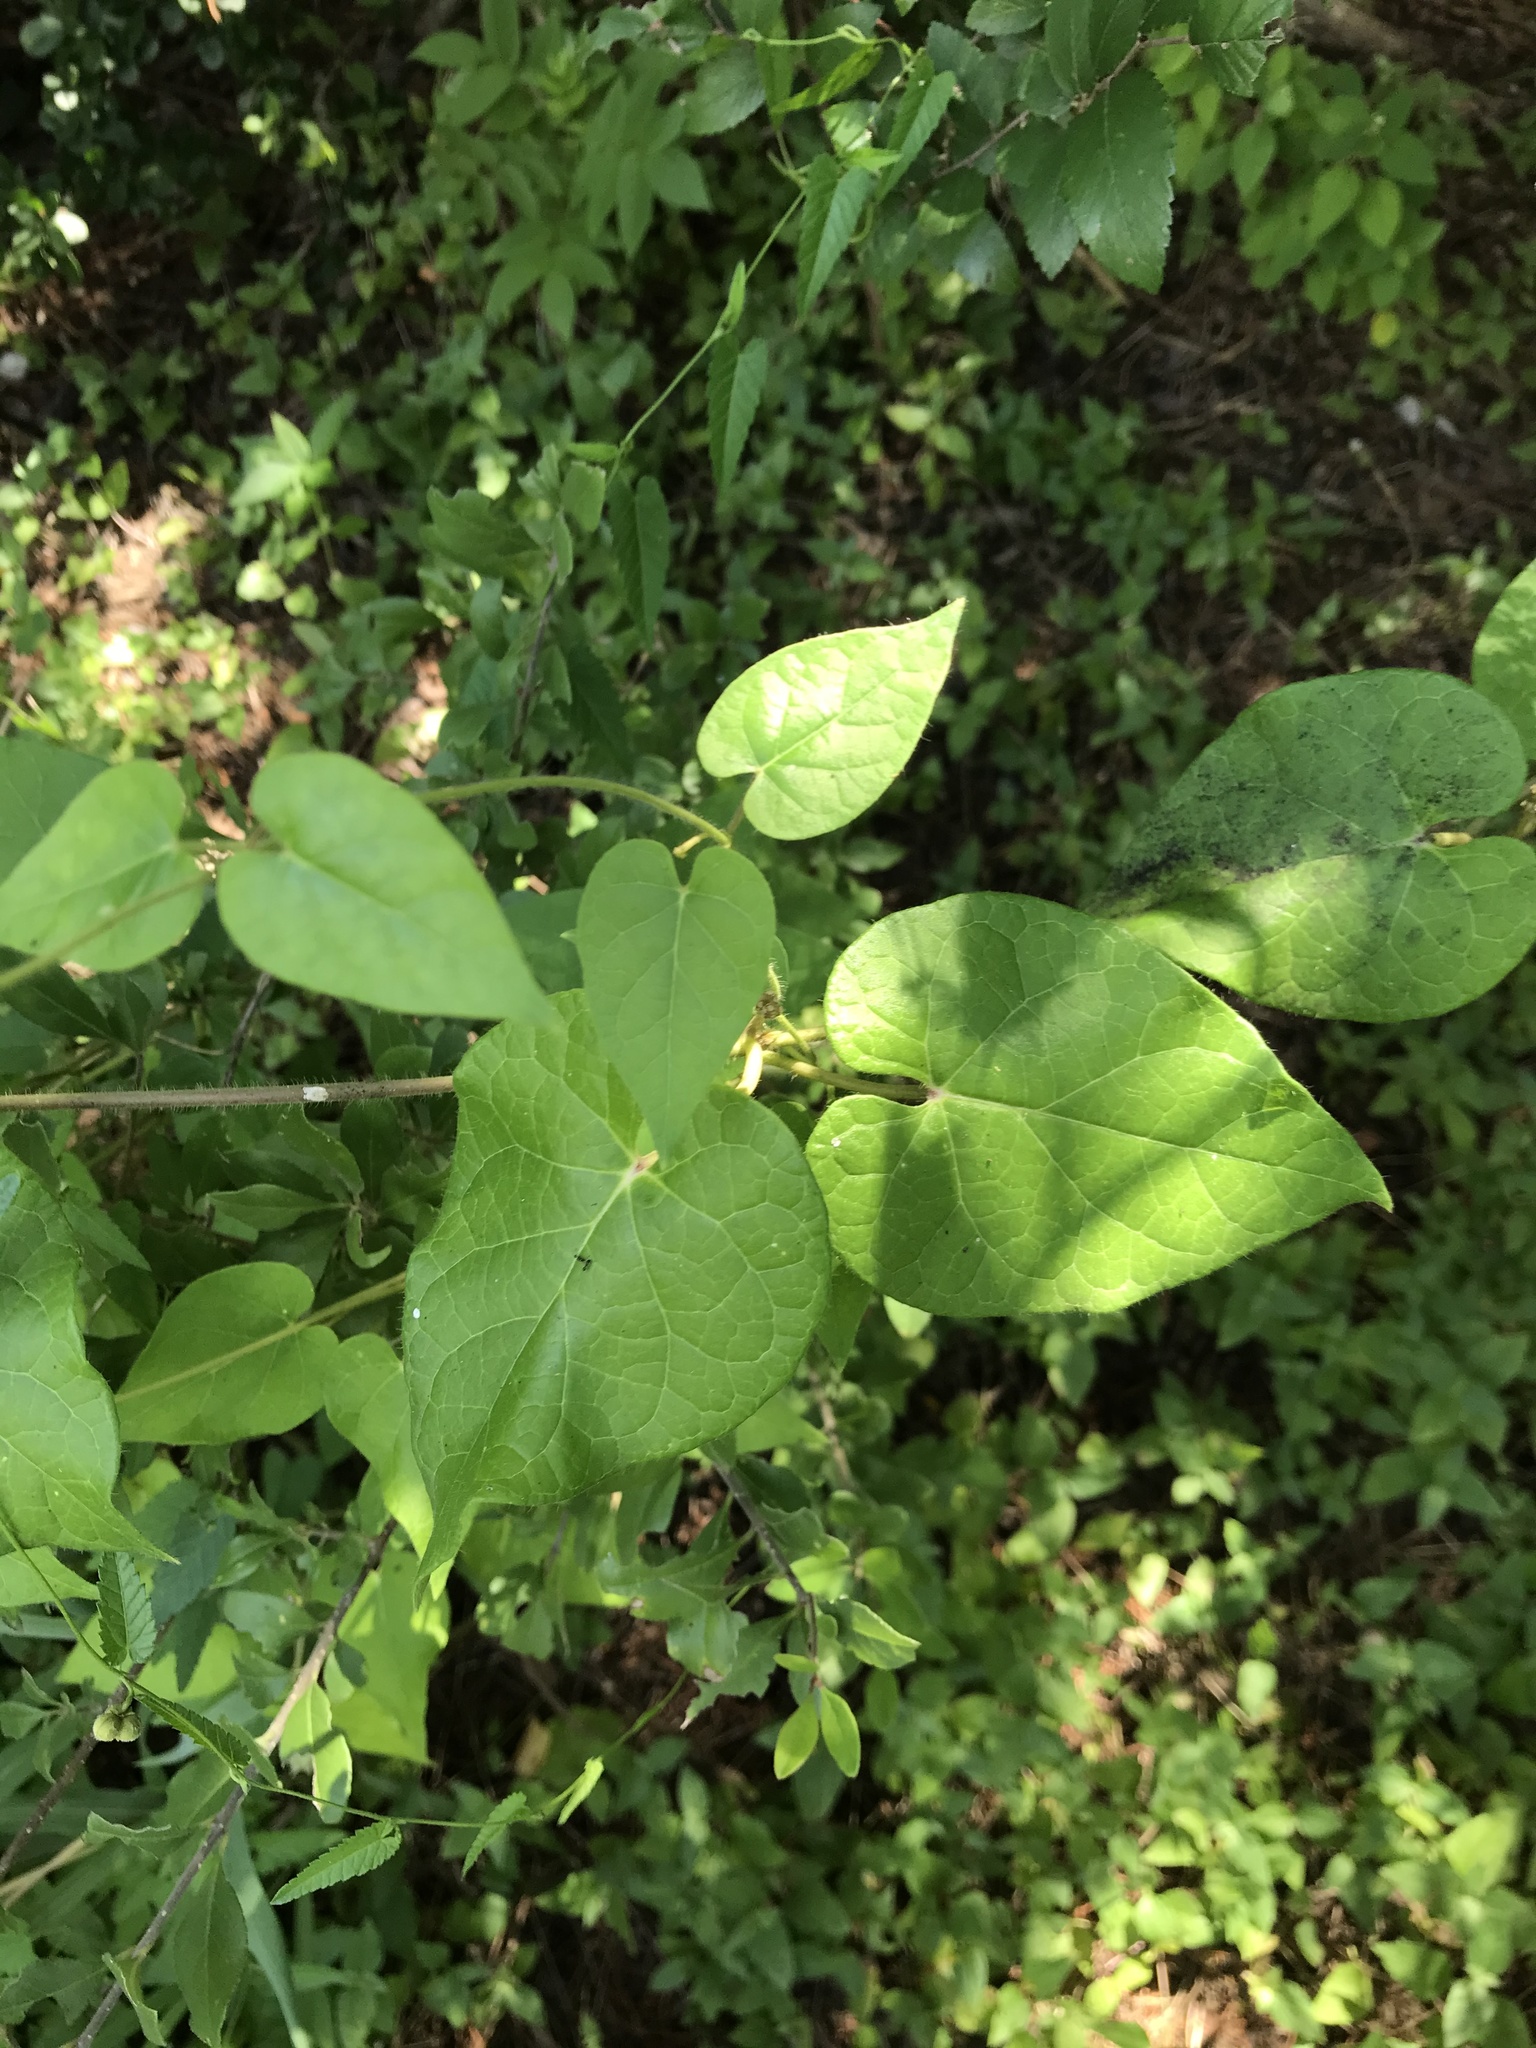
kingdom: Plantae
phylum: Tracheophyta
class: Magnoliopsida
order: Gentianales
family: Apocynaceae
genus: Dictyanthus
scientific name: Dictyanthus reticulatus
